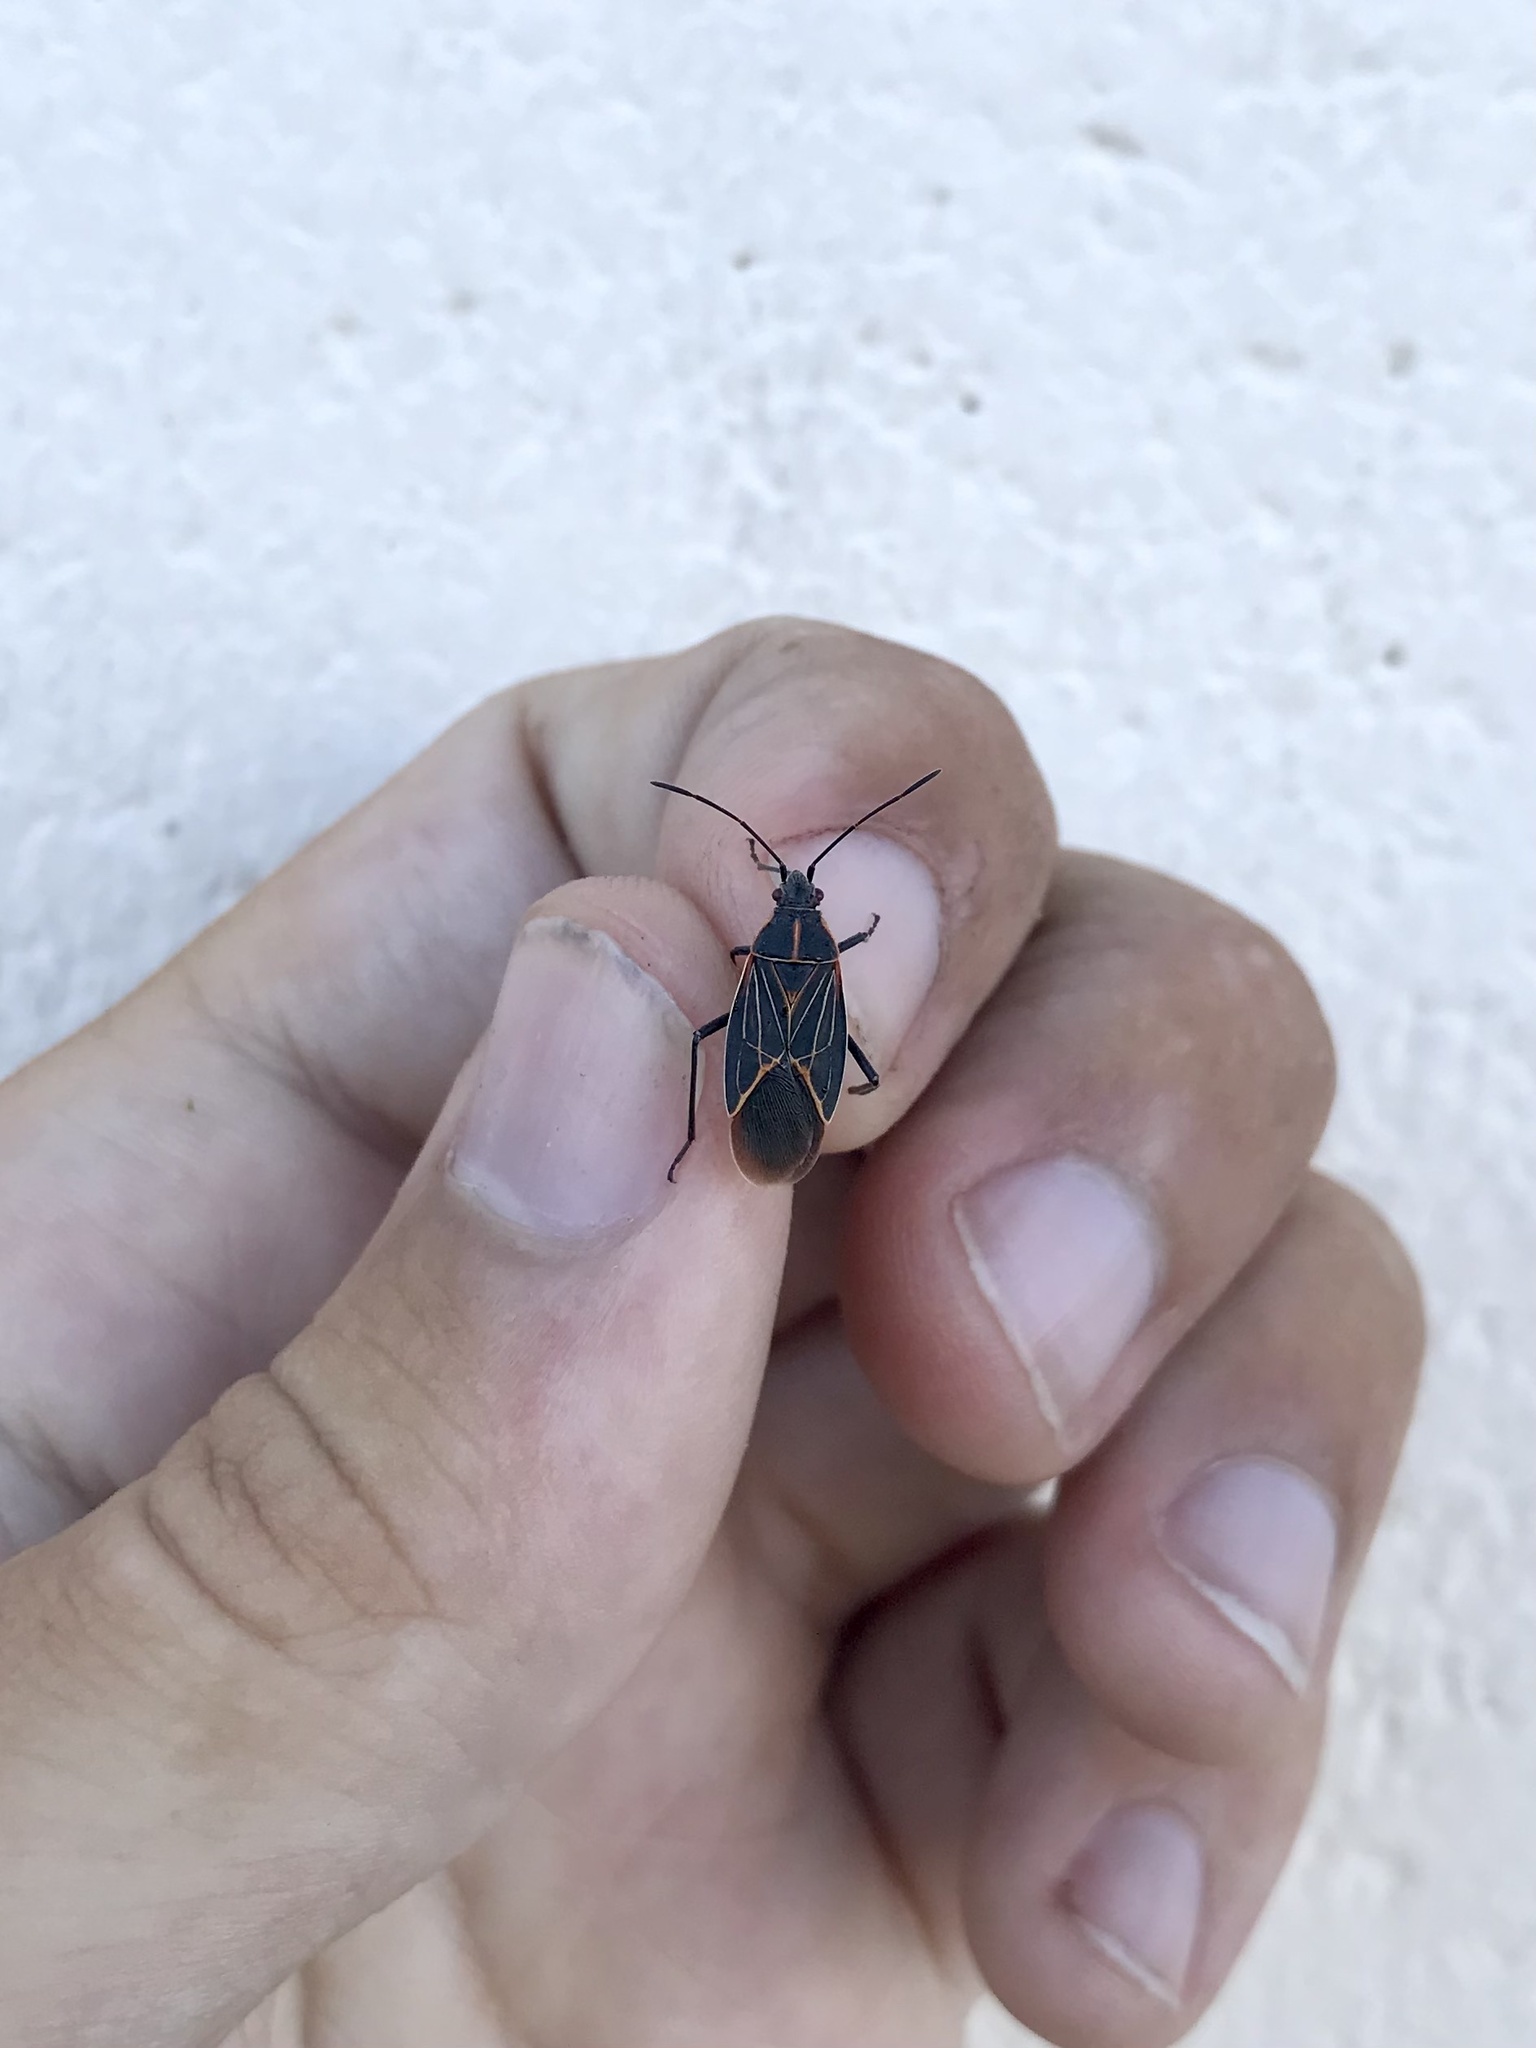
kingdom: Animalia
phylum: Arthropoda
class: Insecta
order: Hemiptera
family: Rhopalidae
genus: Boisea
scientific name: Boisea rubrolineata
